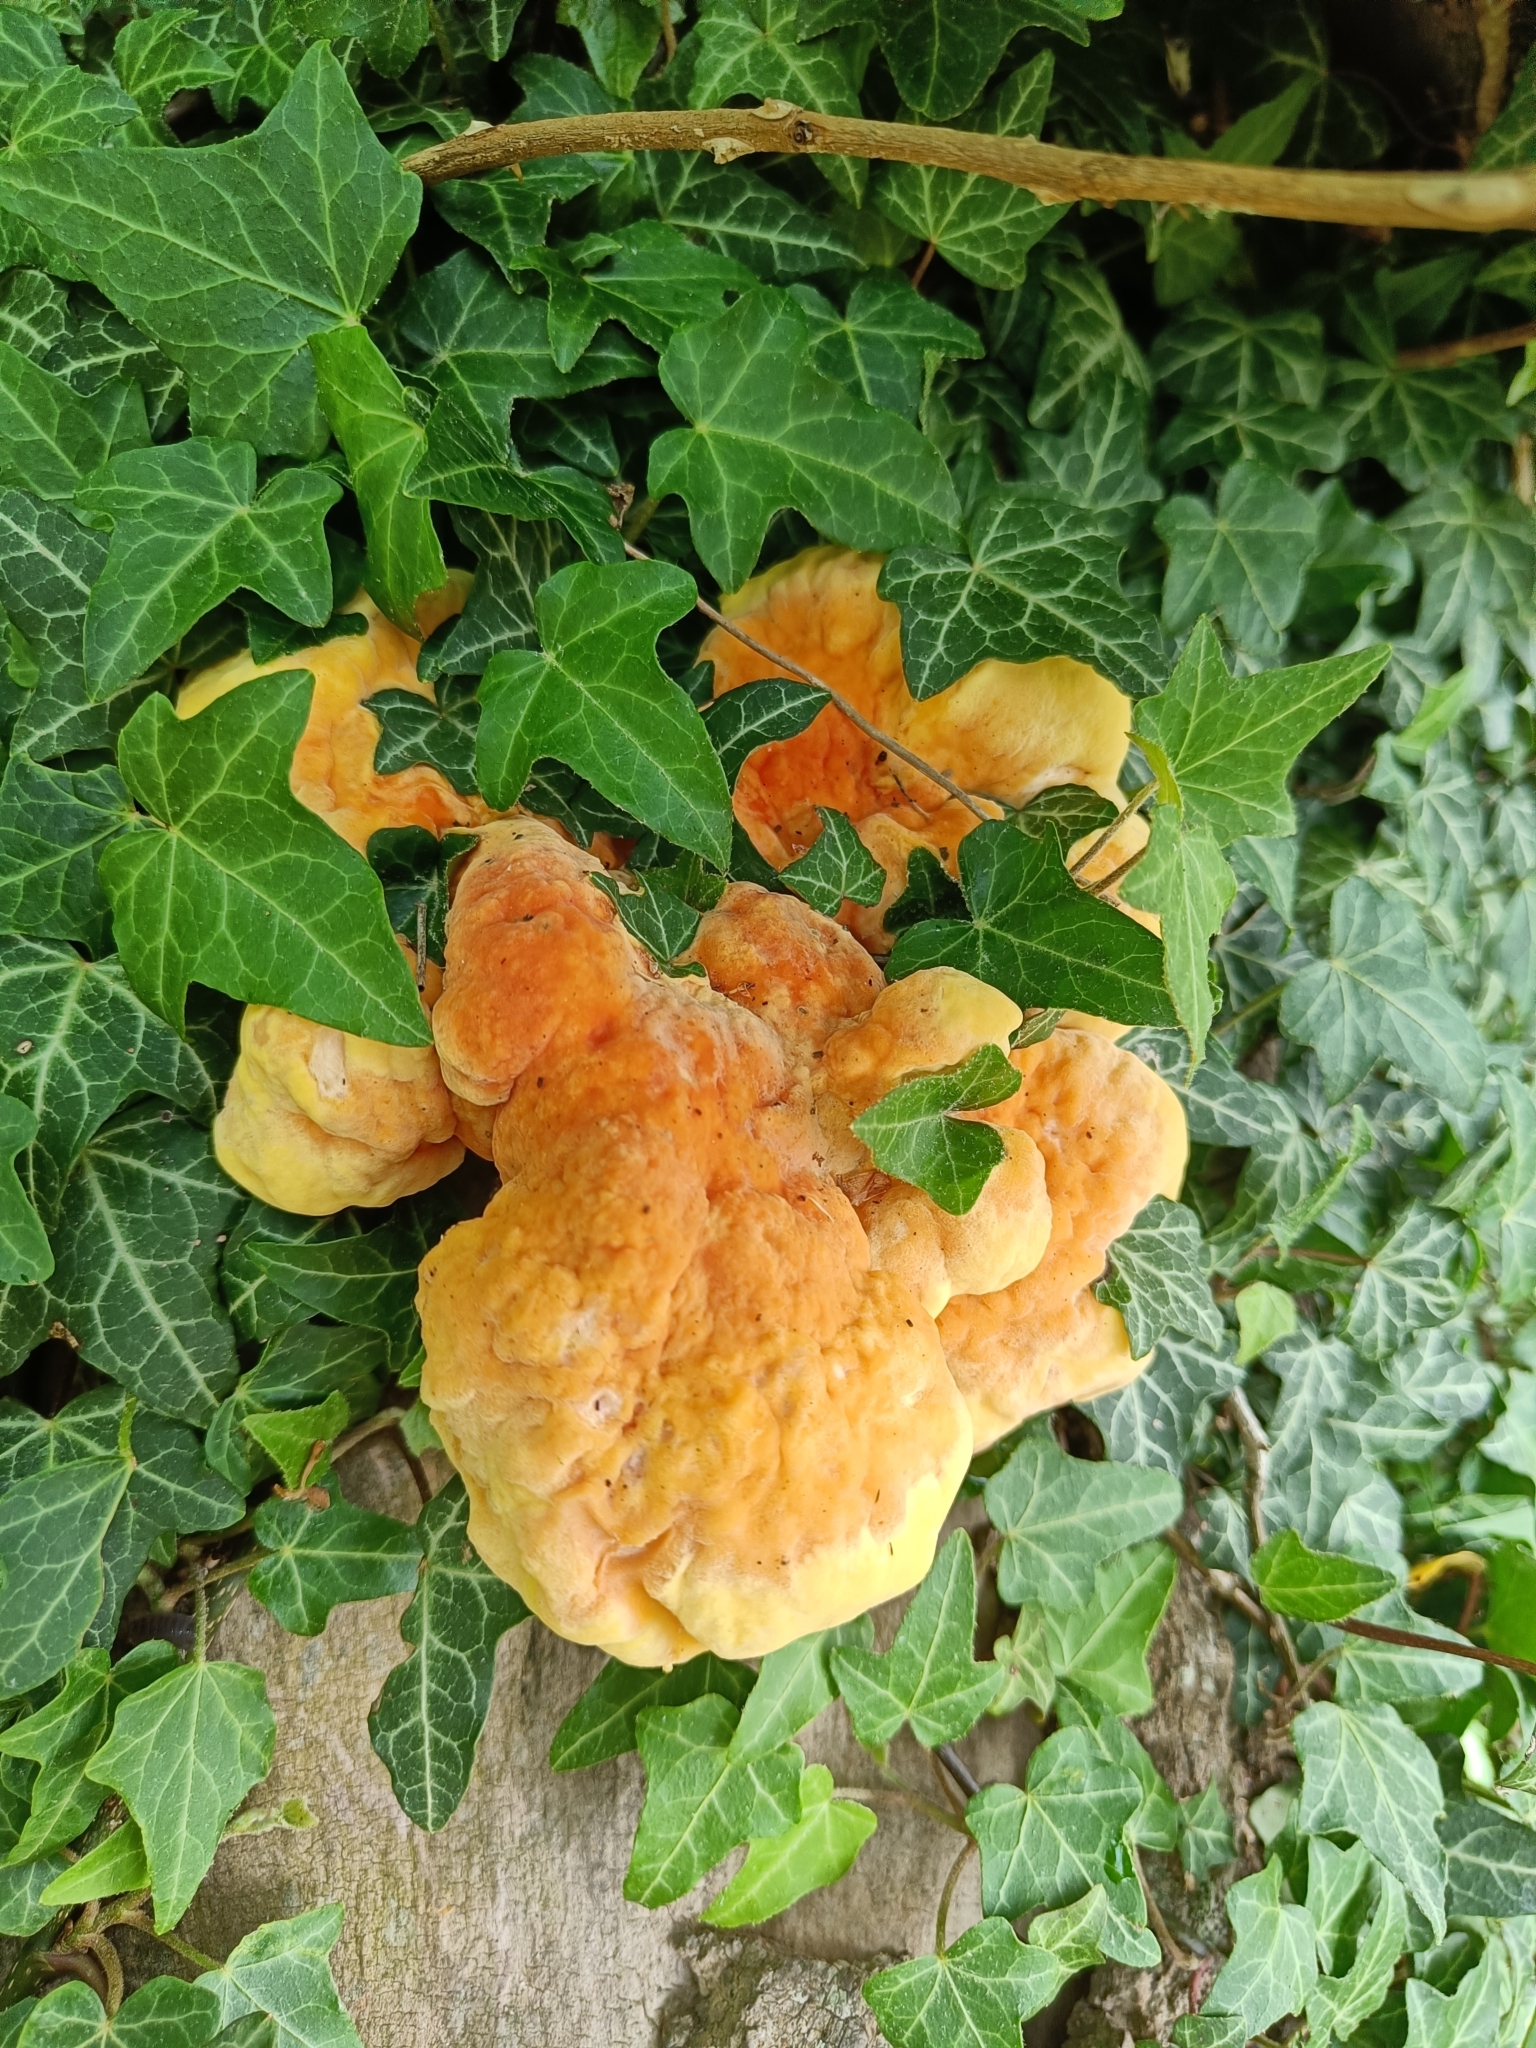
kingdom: Fungi
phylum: Basidiomycota
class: Agaricomycetes
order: Polyporales
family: Laetiporaceae
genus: Laetiporus
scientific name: Laetiporus sulphureus
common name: Chicken of the woods
